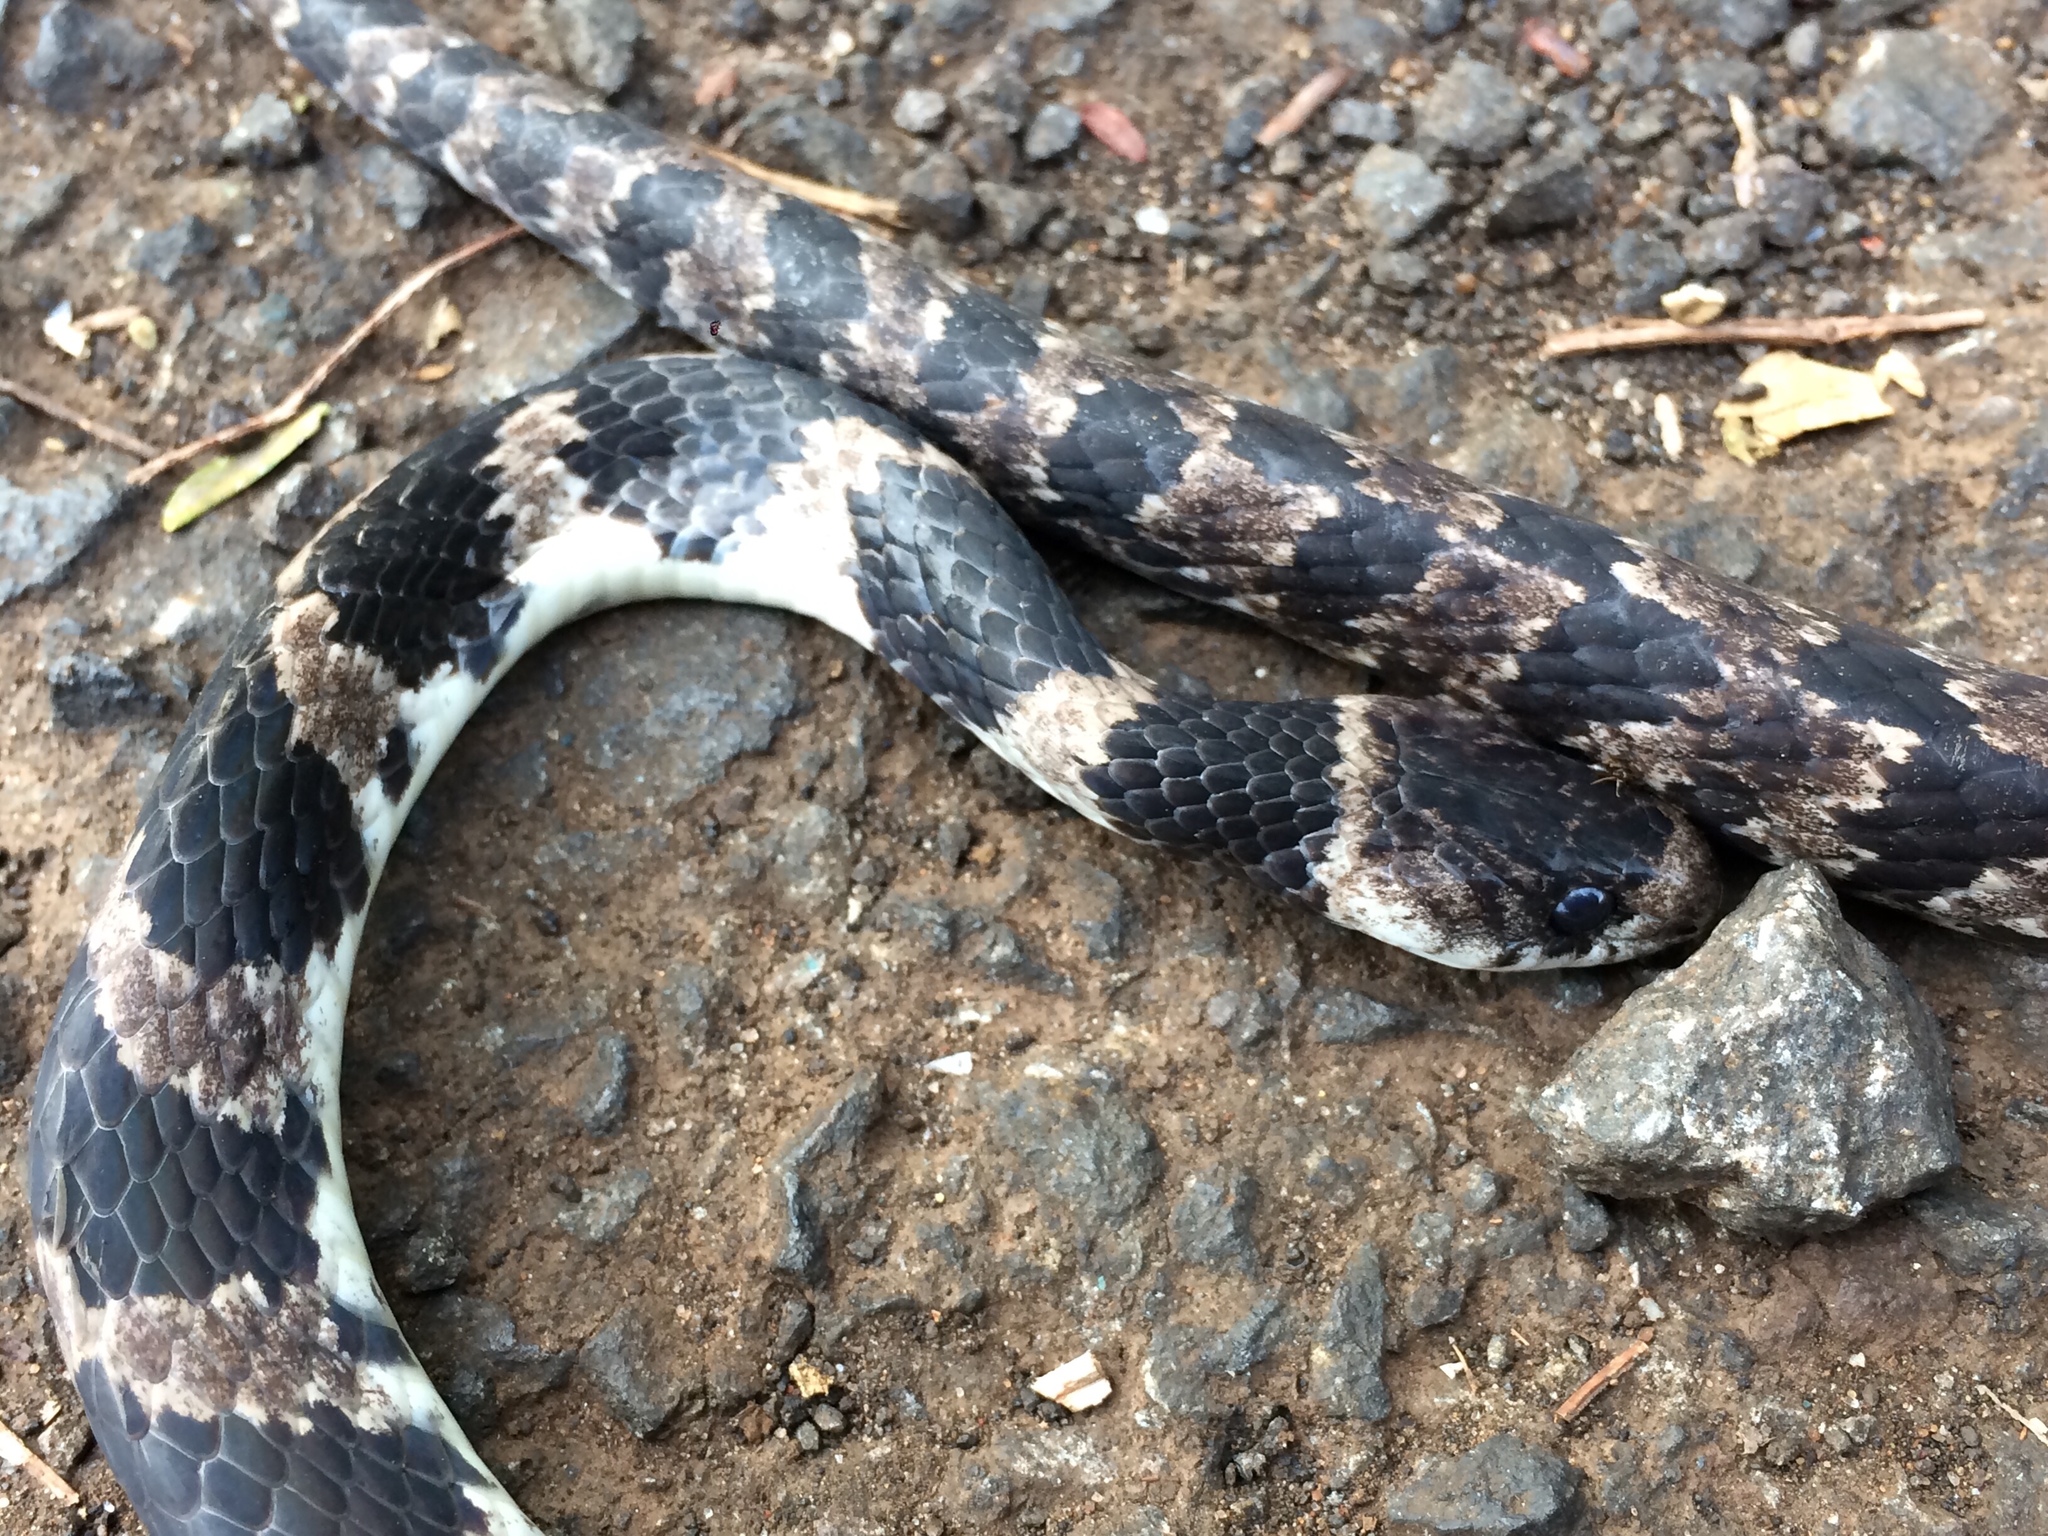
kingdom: Animalia
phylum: Chordata
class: Squamata
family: Colubridae
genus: Dipsas
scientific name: Dipsas ventrimaculata
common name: Boulenger's tree snake
